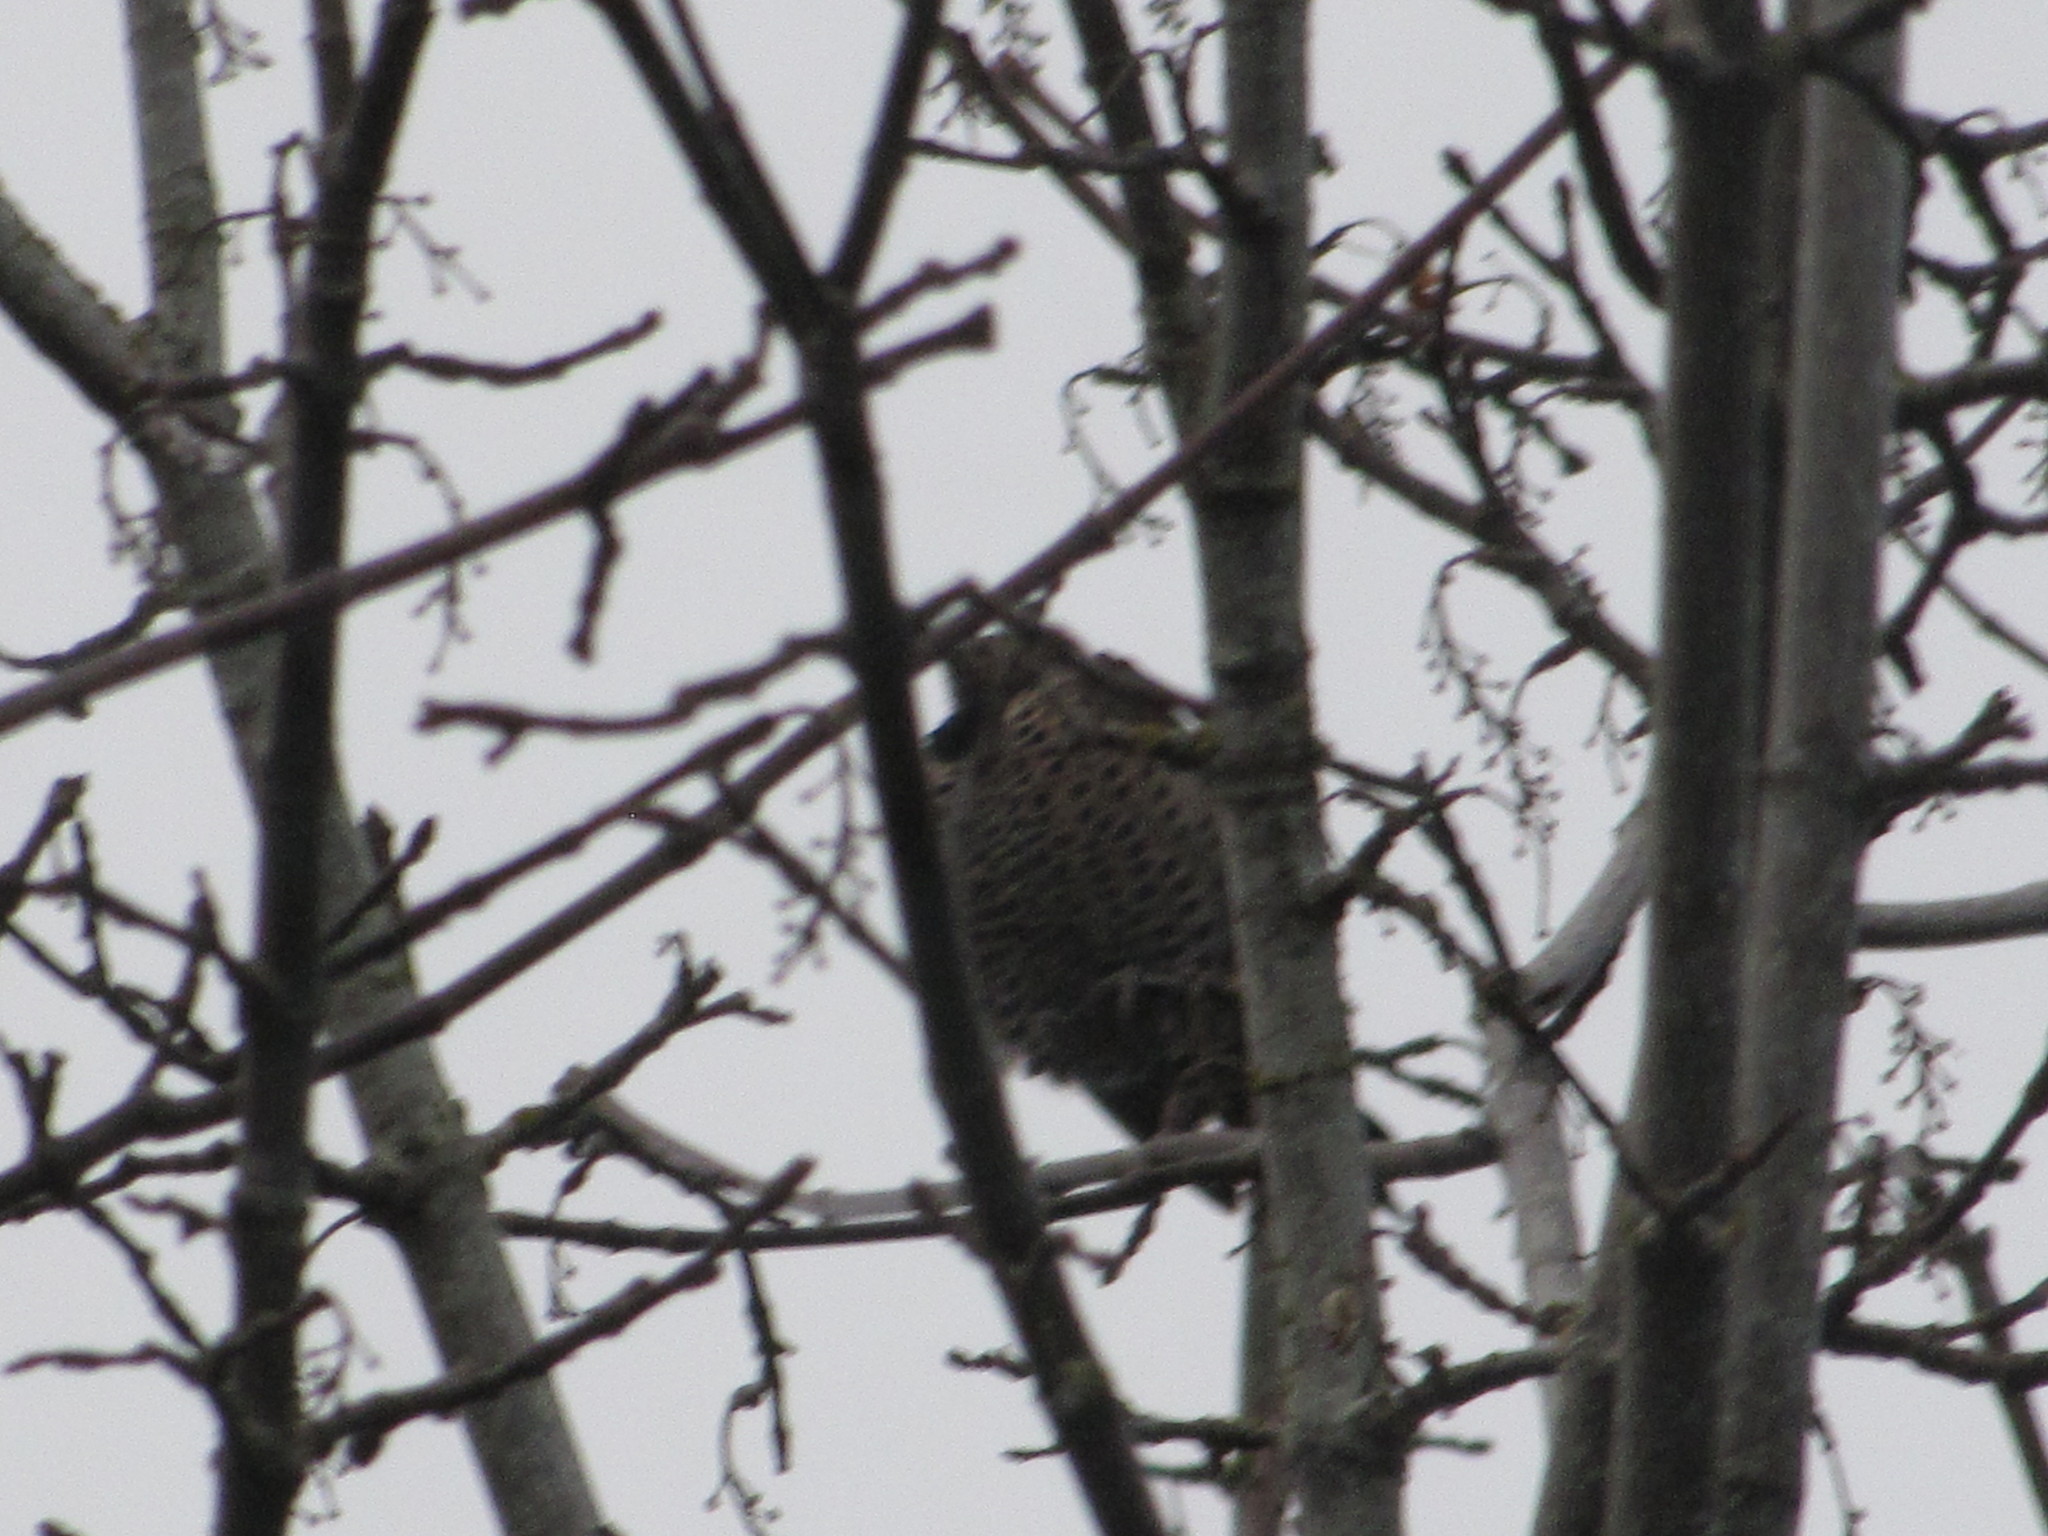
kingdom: Animalia
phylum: Chordata
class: Aves
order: Piciformes
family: Picidae
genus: Colaptes
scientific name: Colaptes auratus
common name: Northern flicker
